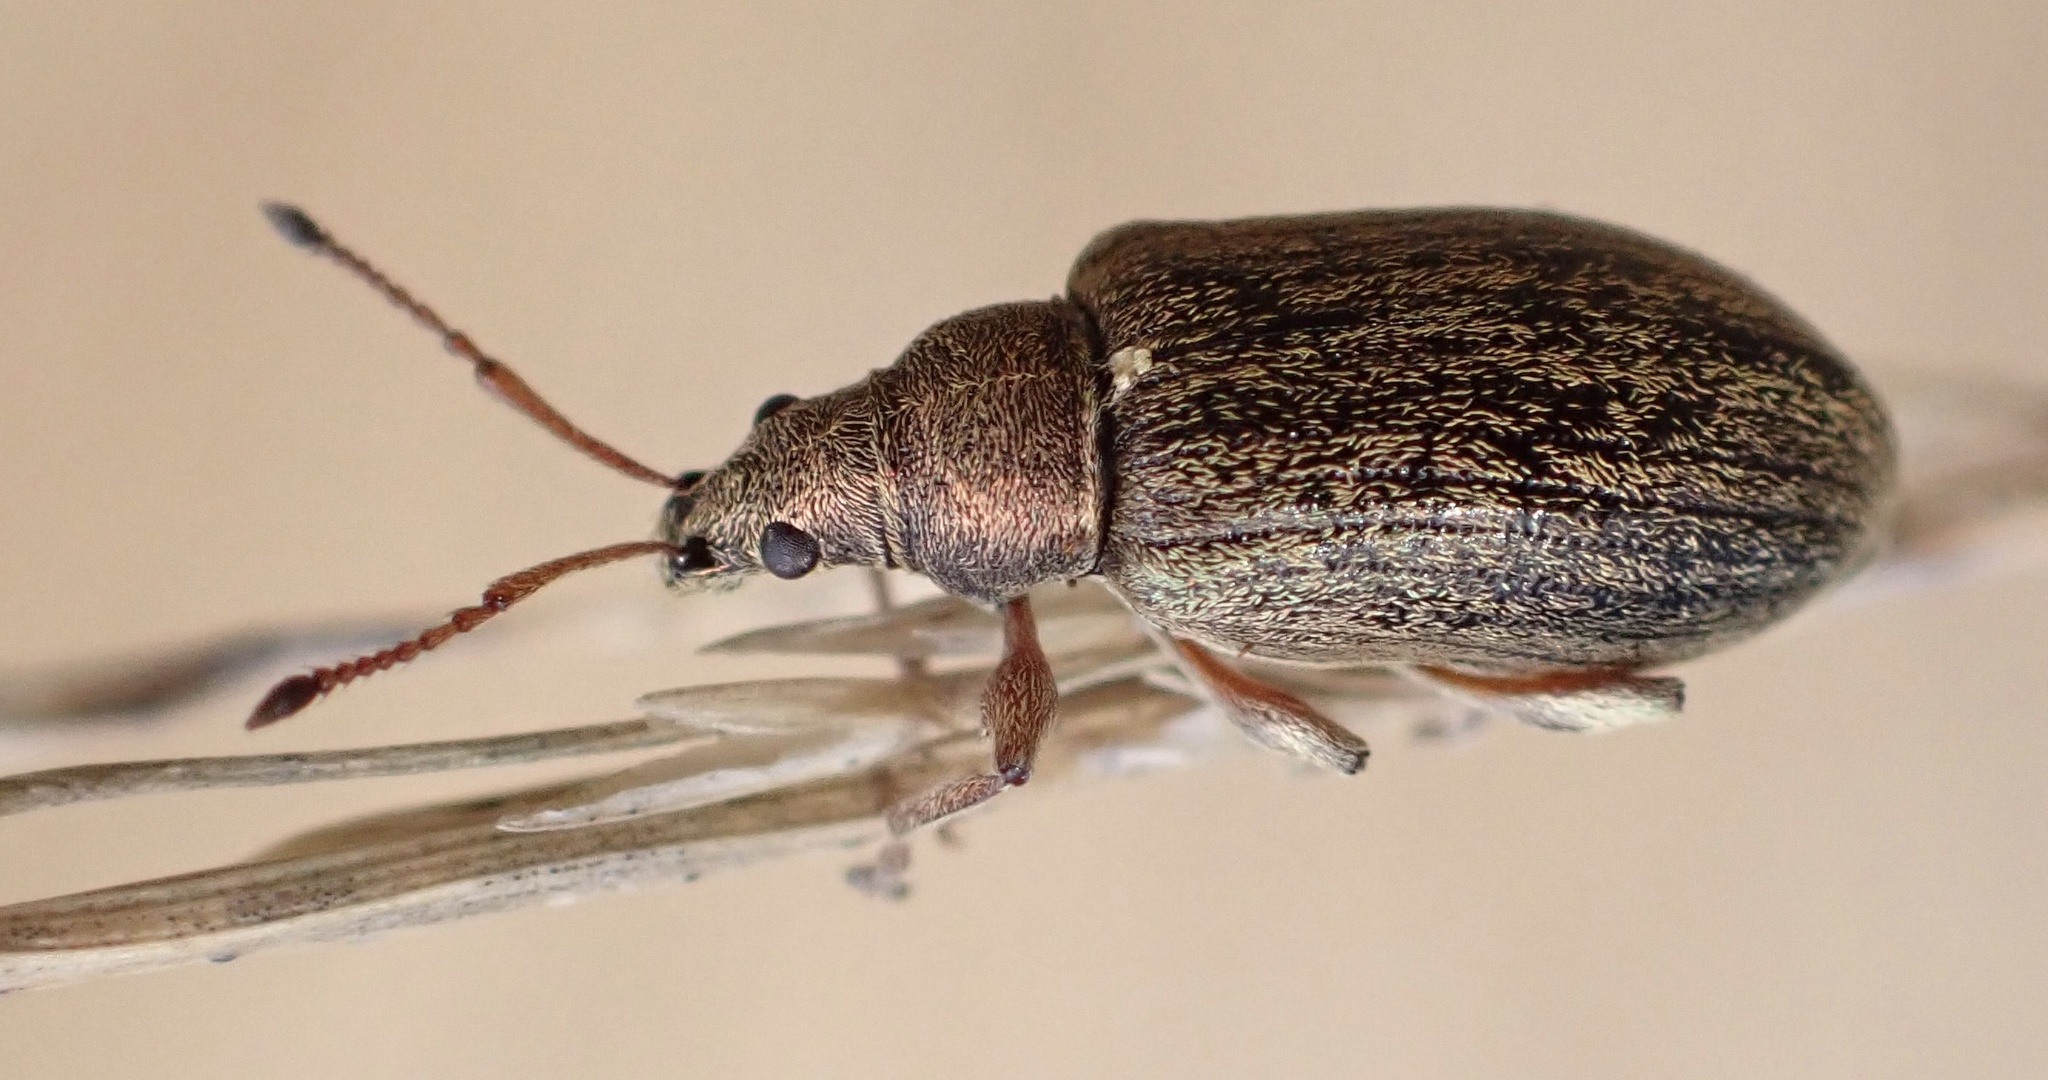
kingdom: Animalia
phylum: Arthropoda
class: Insecta
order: Coleoptera
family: Curculionidae
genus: Phyllobius
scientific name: Phyllobius pyri
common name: Common leaf weevil
